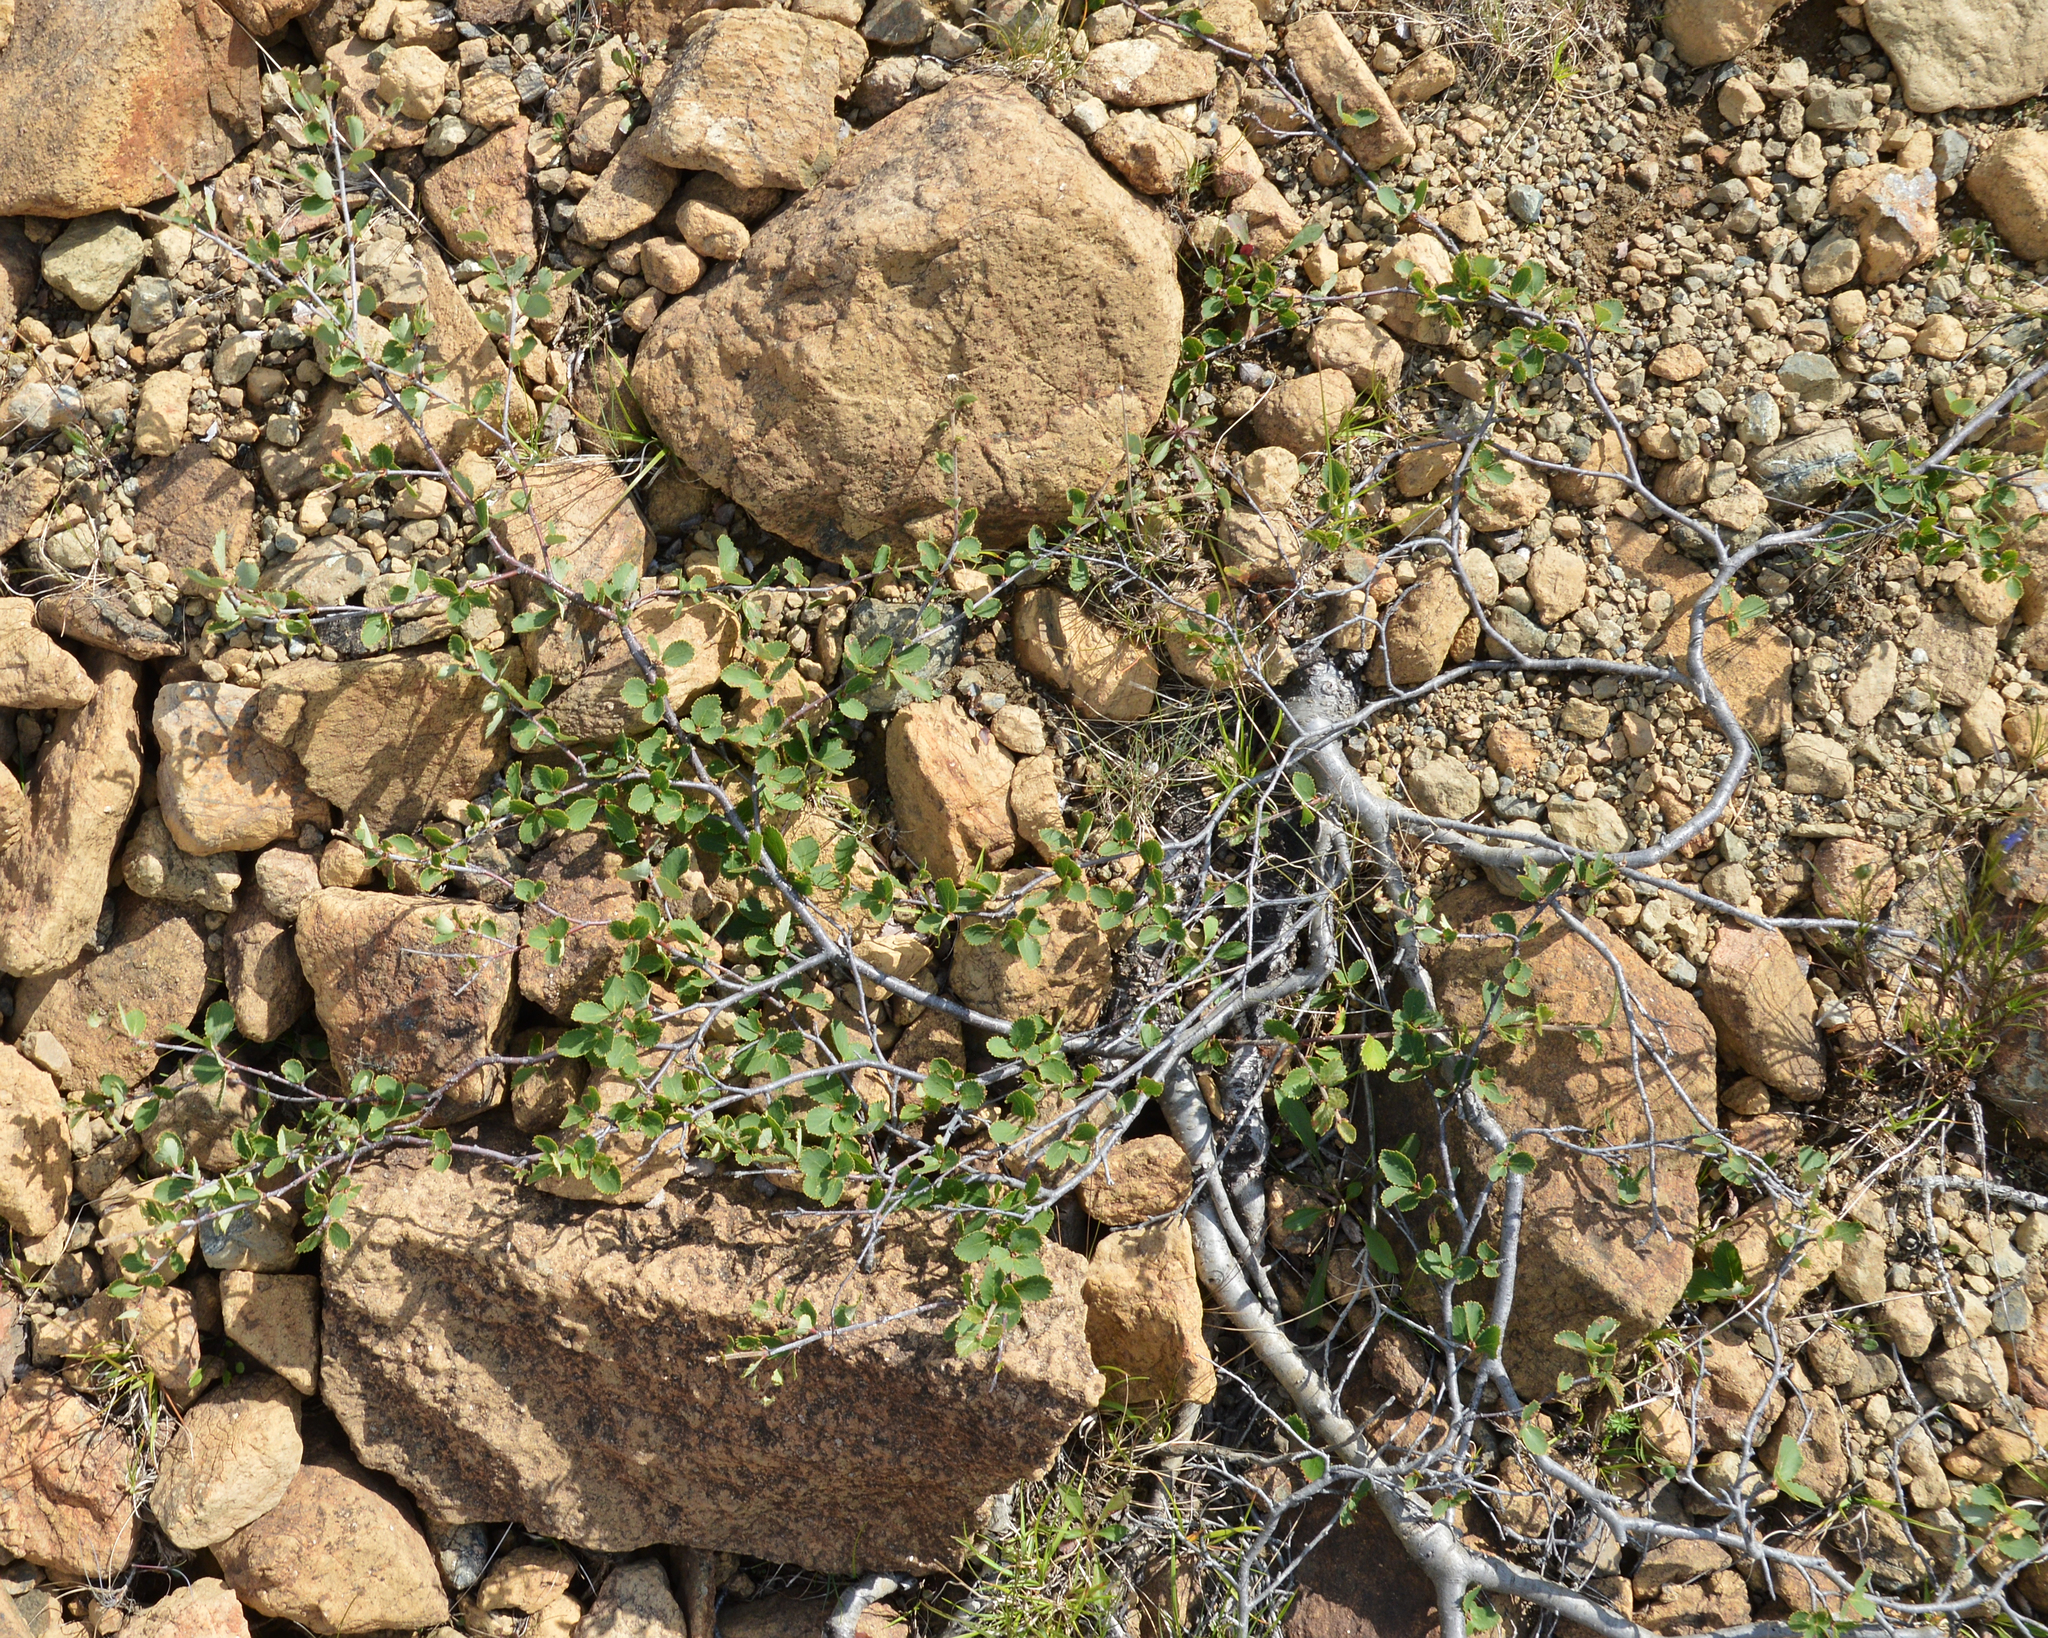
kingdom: Plantae
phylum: Tracheophyta
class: Magnoliopsida
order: Fagales
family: Betulaceae
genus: Betula
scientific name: Betula pumila
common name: Bog birch
